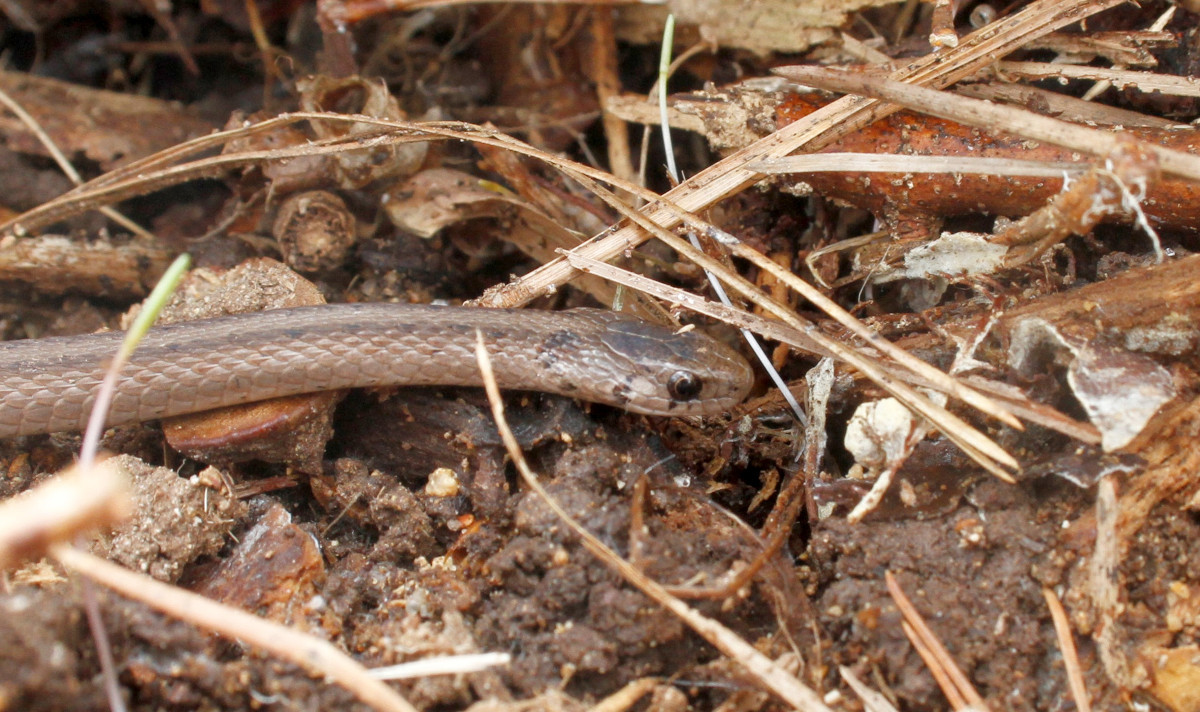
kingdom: Animalia
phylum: Chordata
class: Squamata
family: Colubridae
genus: Storeria
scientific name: Storeria dekayi
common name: (dekay’s) brown snake
